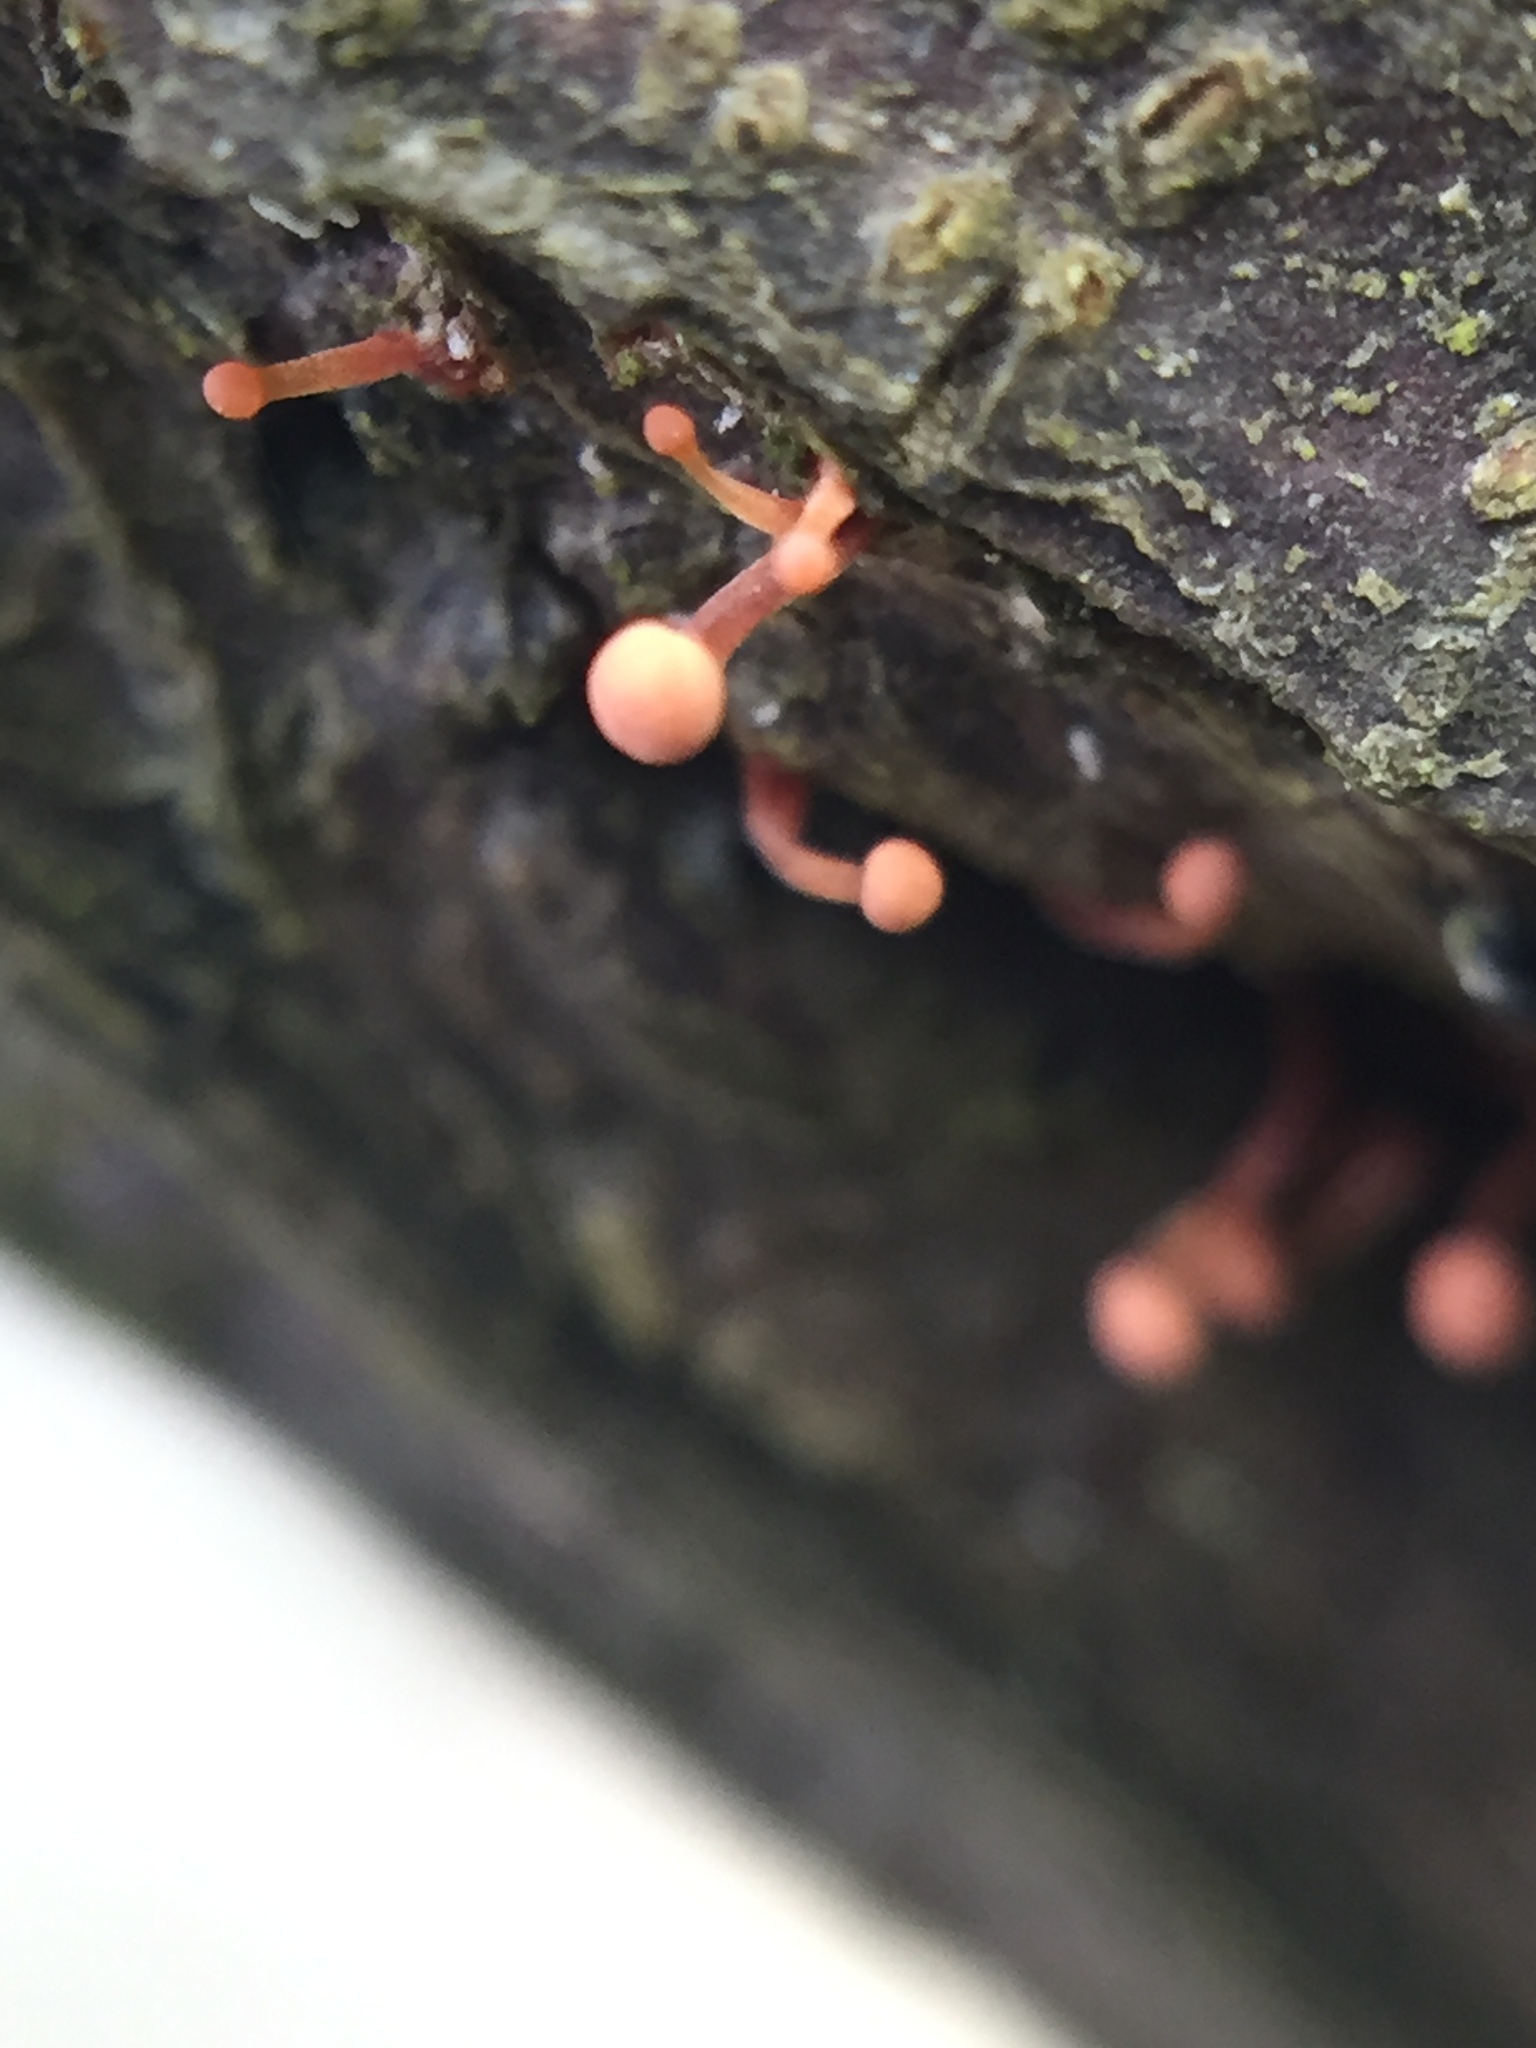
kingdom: Fungi
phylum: Ascomycota
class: Sordariomycetes
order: Hypocreales
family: Nectriaceae
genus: Murinectria
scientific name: Murinectria polythalama
